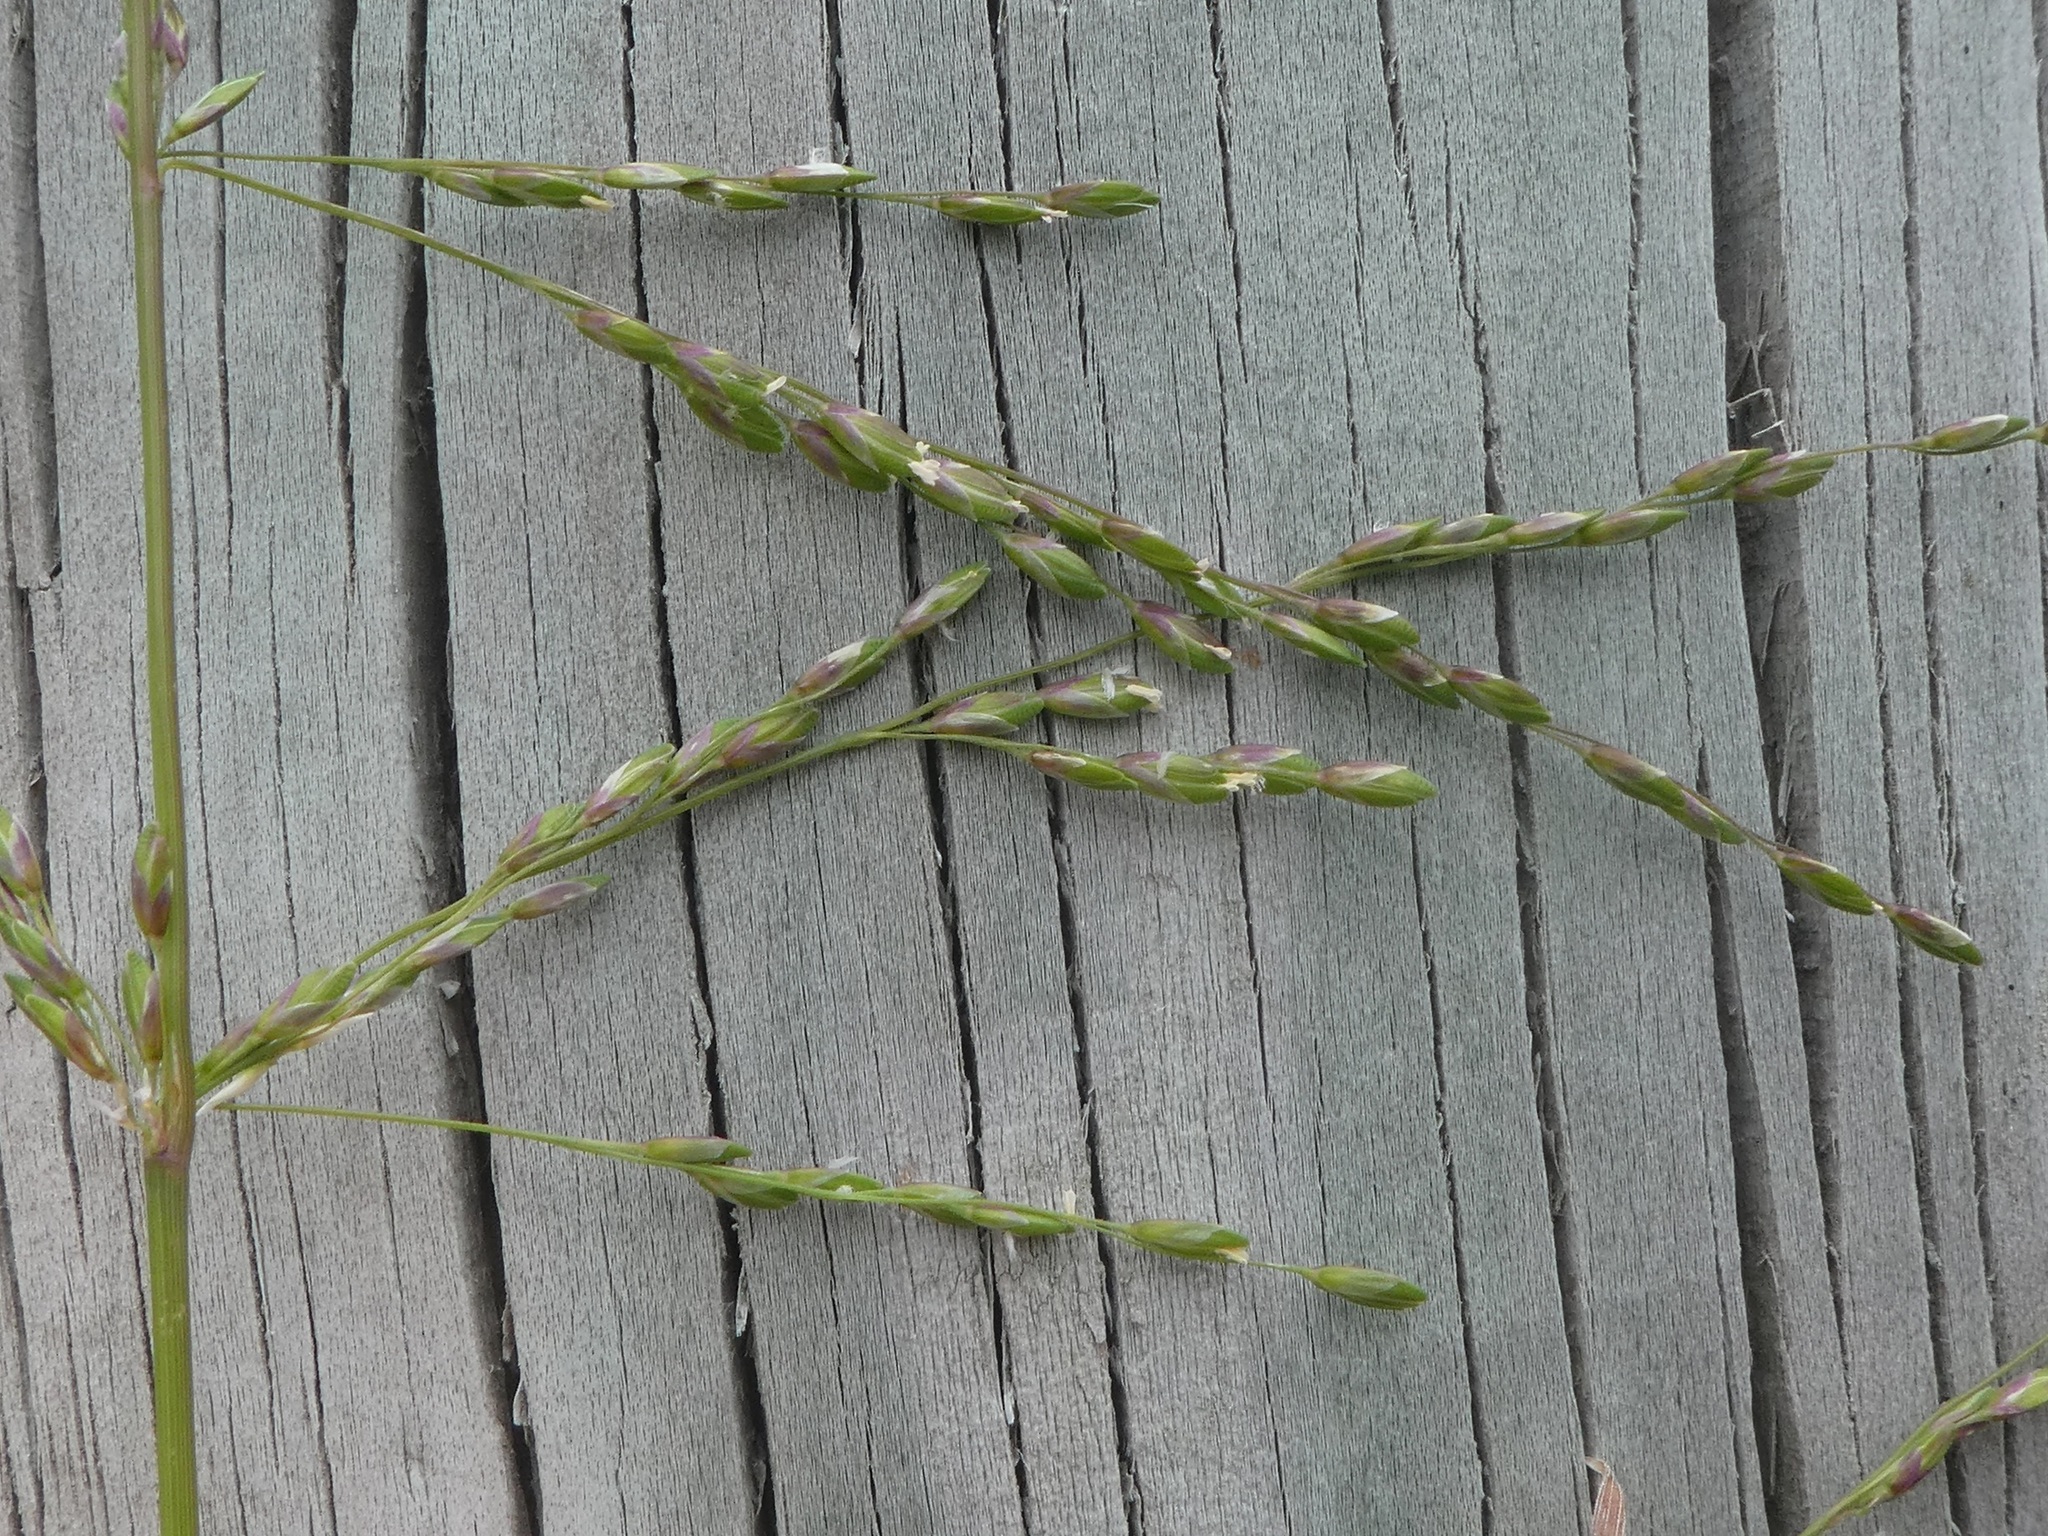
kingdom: Plantae
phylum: Tracheophyta
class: Liliopsida
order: Poales
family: Poaceae
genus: Arrhenatherum
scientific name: Arrhenatherum elatius
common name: Tall oatgrass
